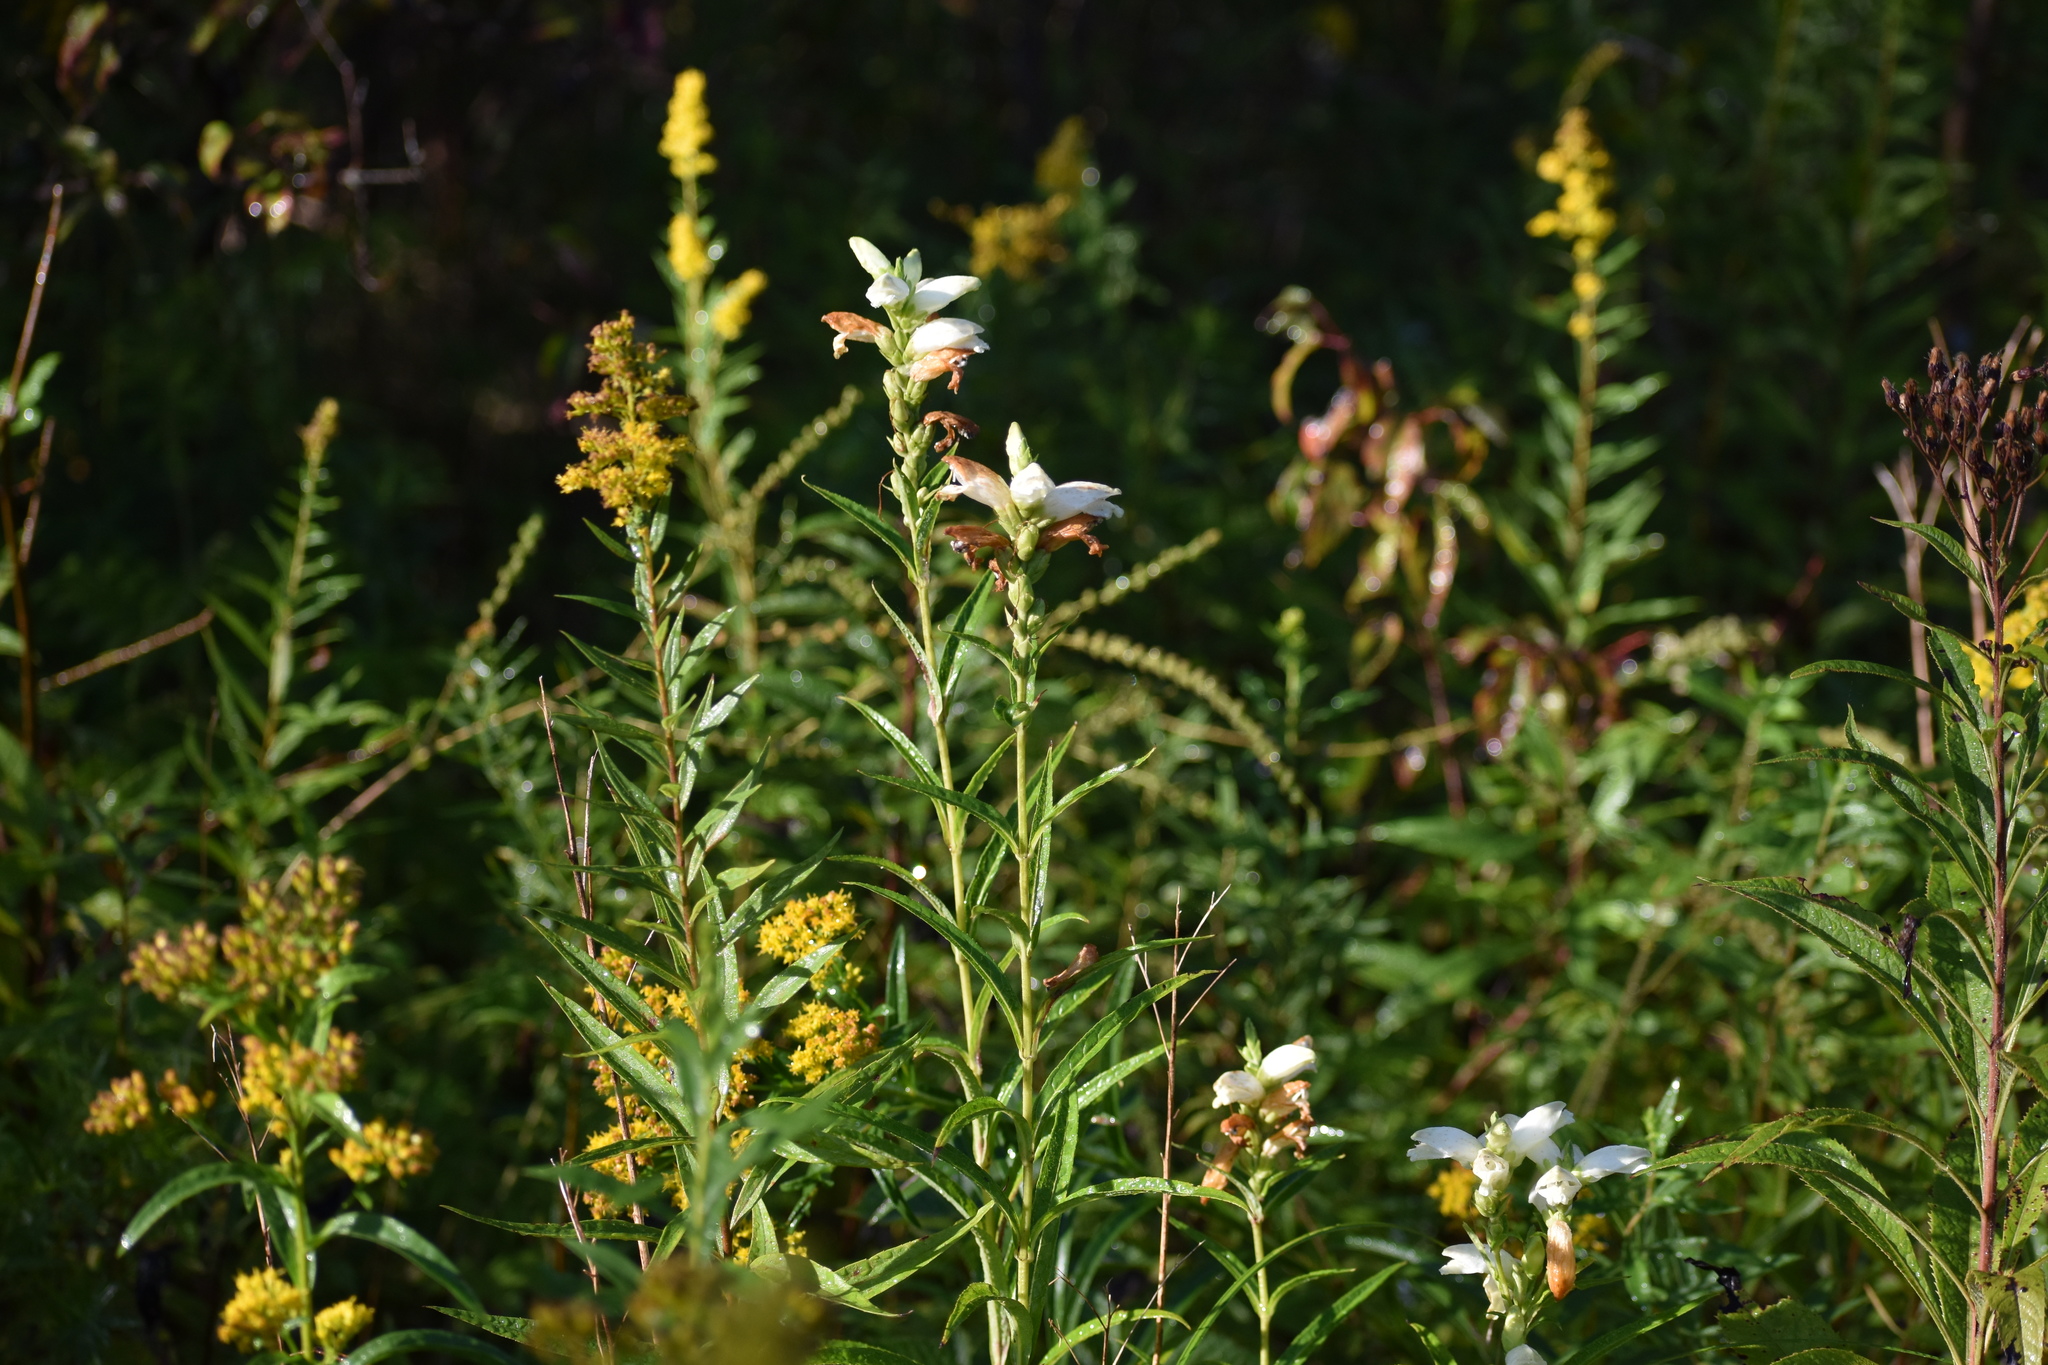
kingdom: Plantae
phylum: Tracheophyta
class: Magnoliopsida
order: Lamiales
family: Plantaginaceae
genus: Chelone
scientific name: Chelone glabra
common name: Snakehead
